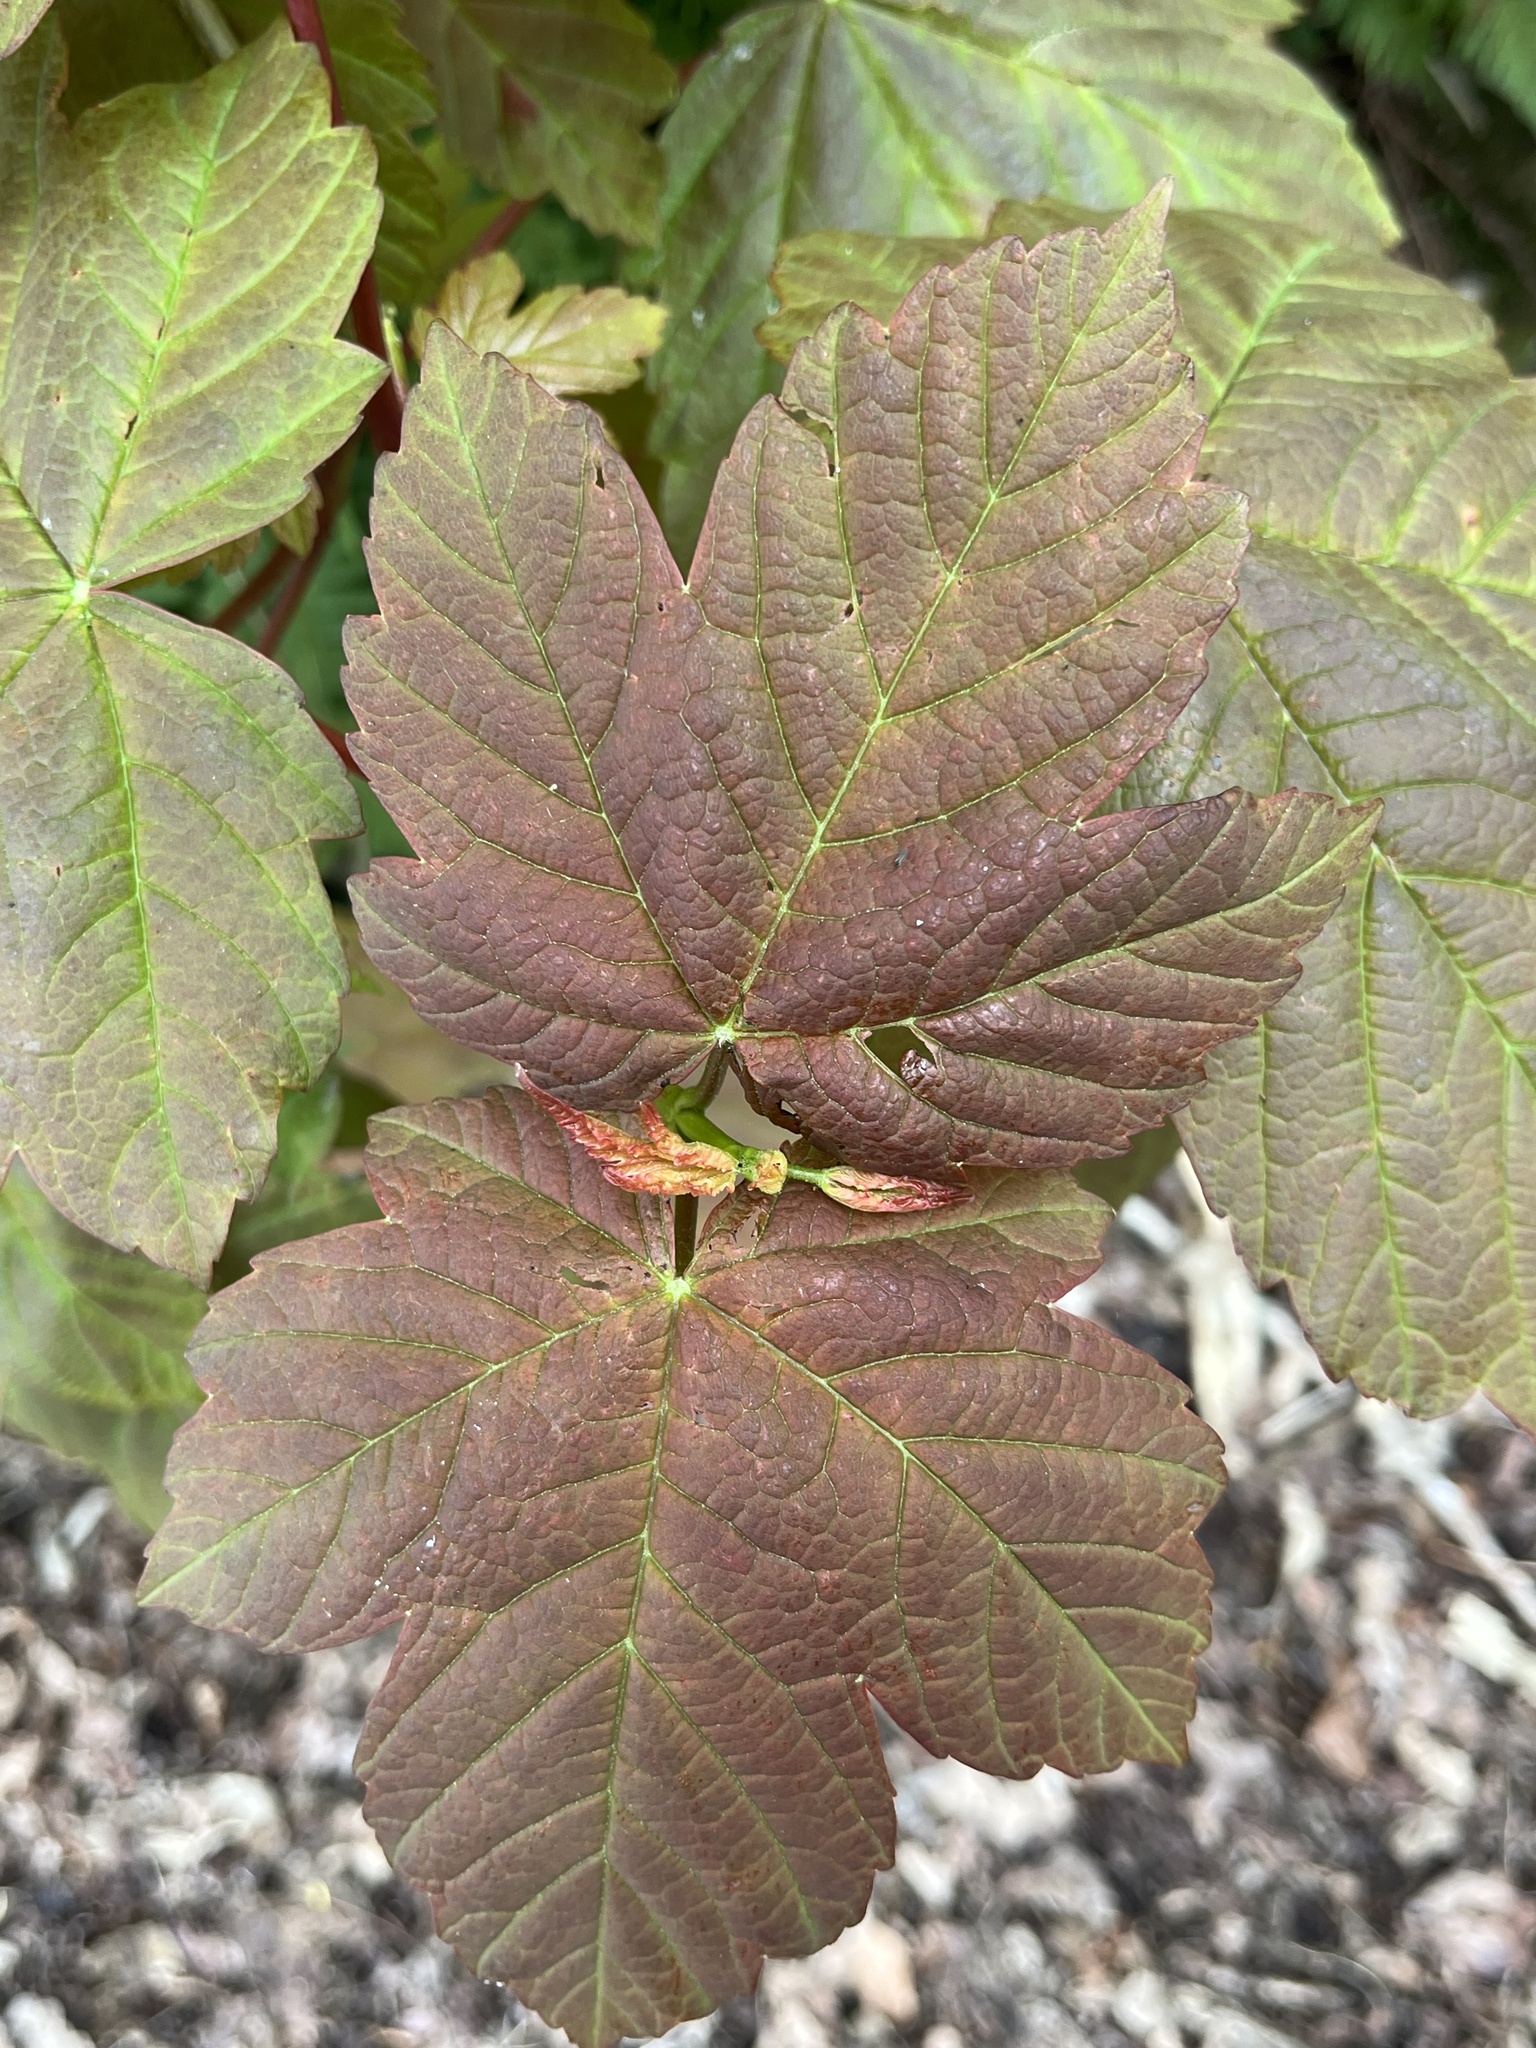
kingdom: Plantae
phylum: Tracheophyta
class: Magnoliopsida
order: Sapindales
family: Sapindaceae
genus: Acer
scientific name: Acer pseudoplatanus
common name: Sycamore
